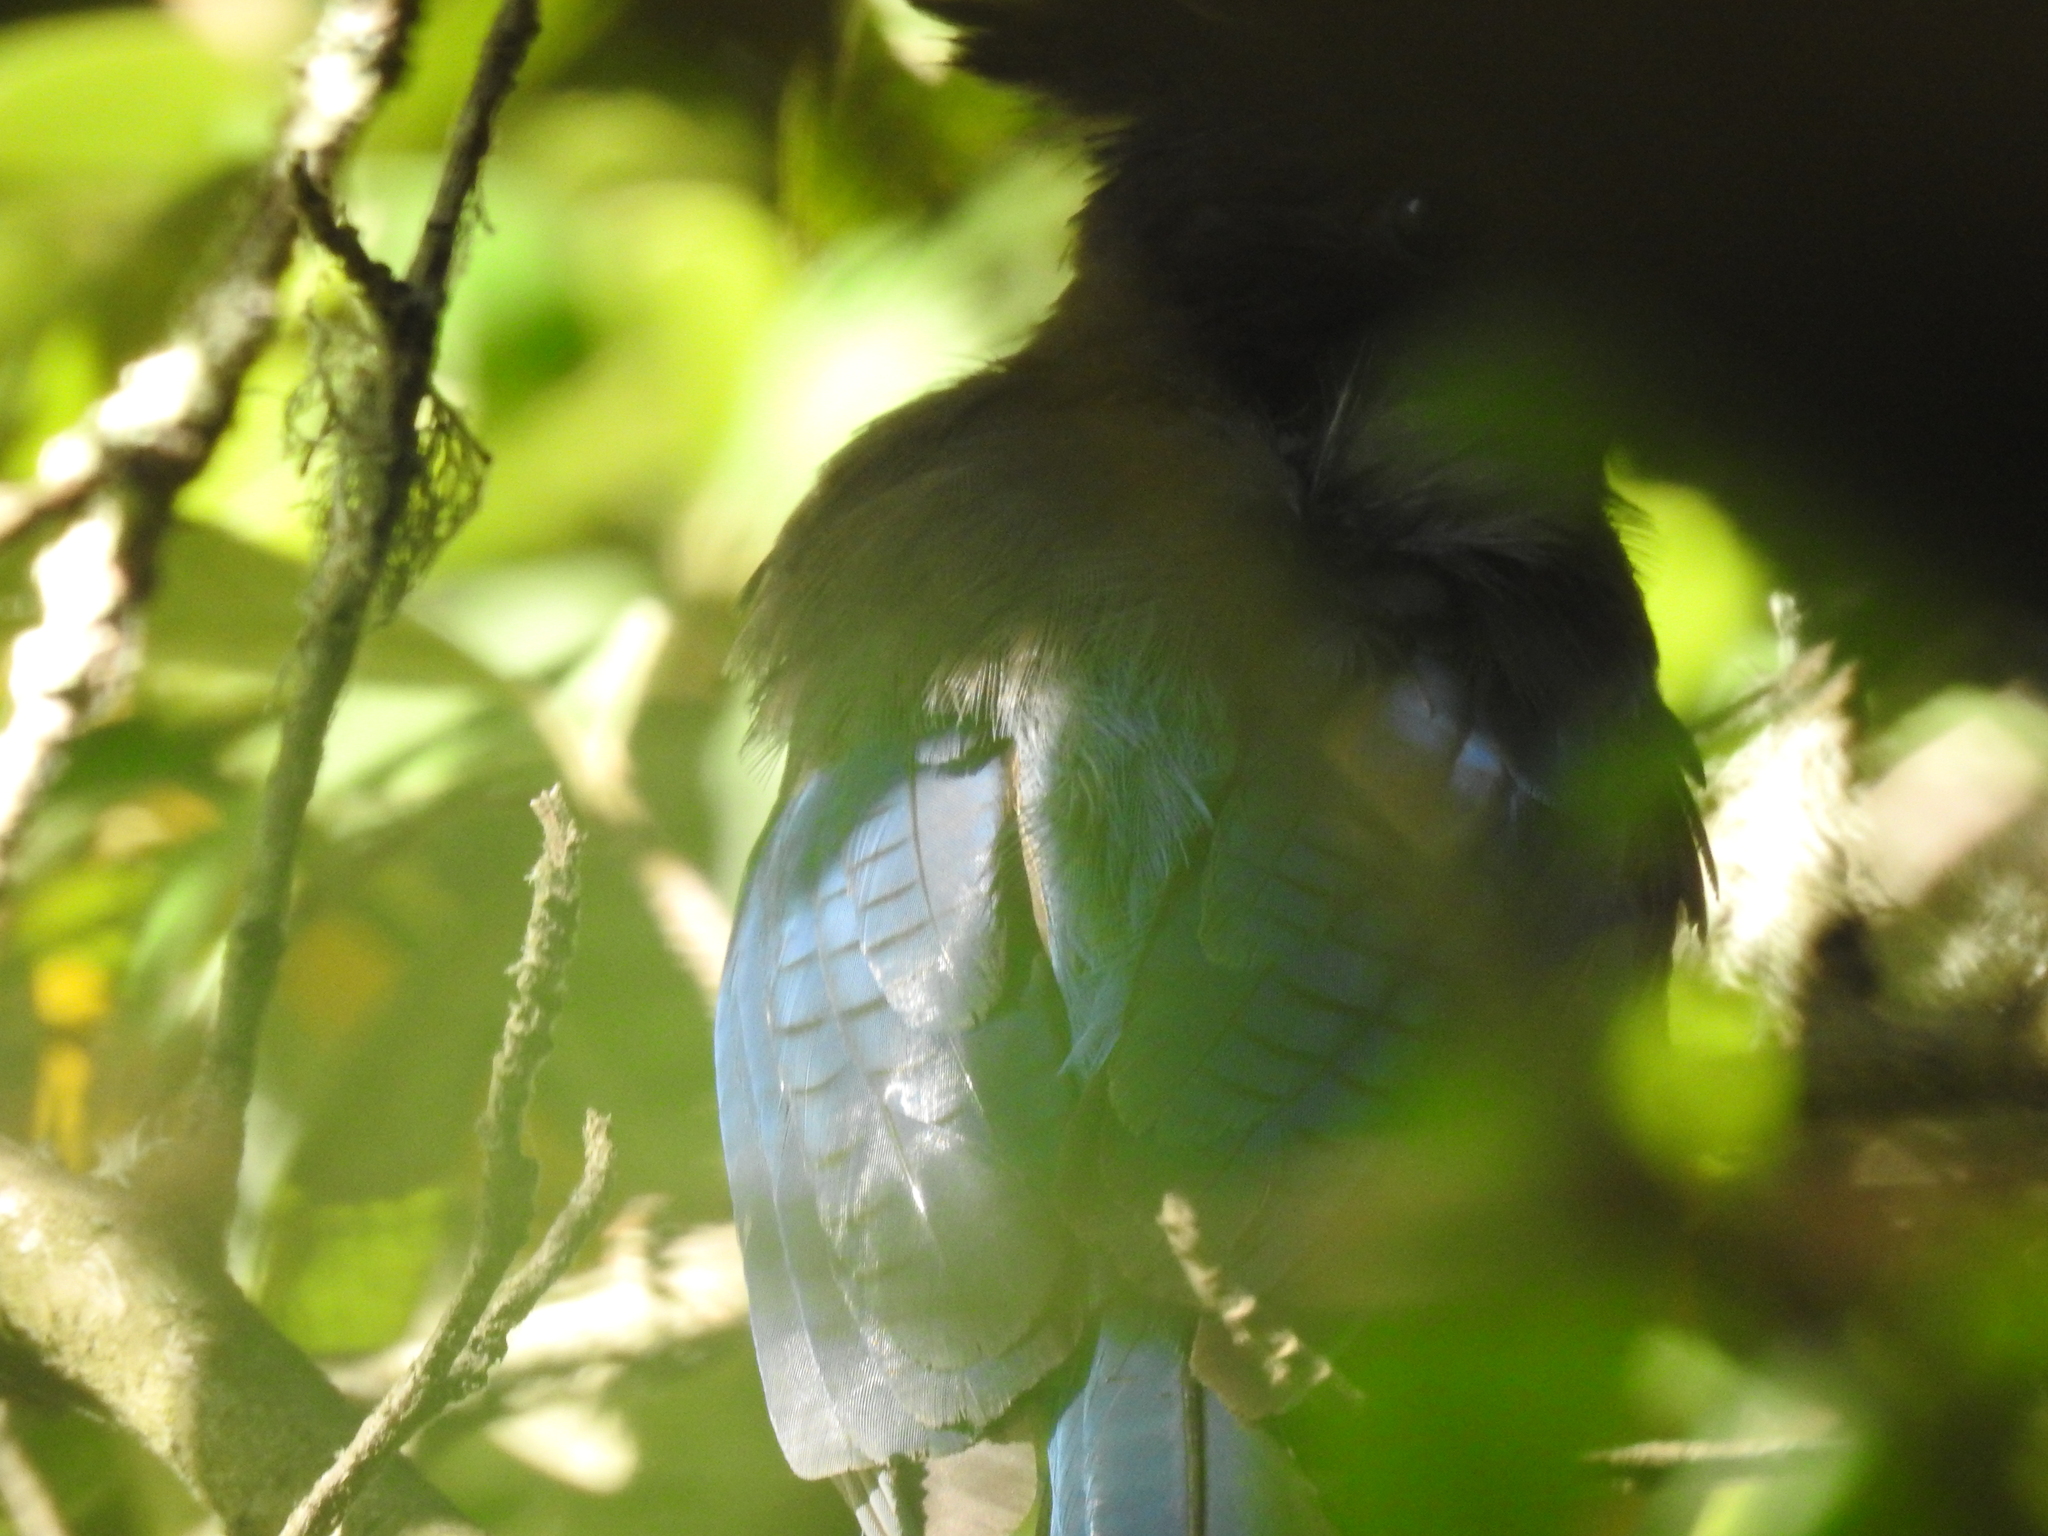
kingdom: Animalia
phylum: Chordata
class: Aves
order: Passeriformes
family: Corvidae
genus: Cyanocitta
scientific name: Cyanocitta stelleri
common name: Steller's jay
